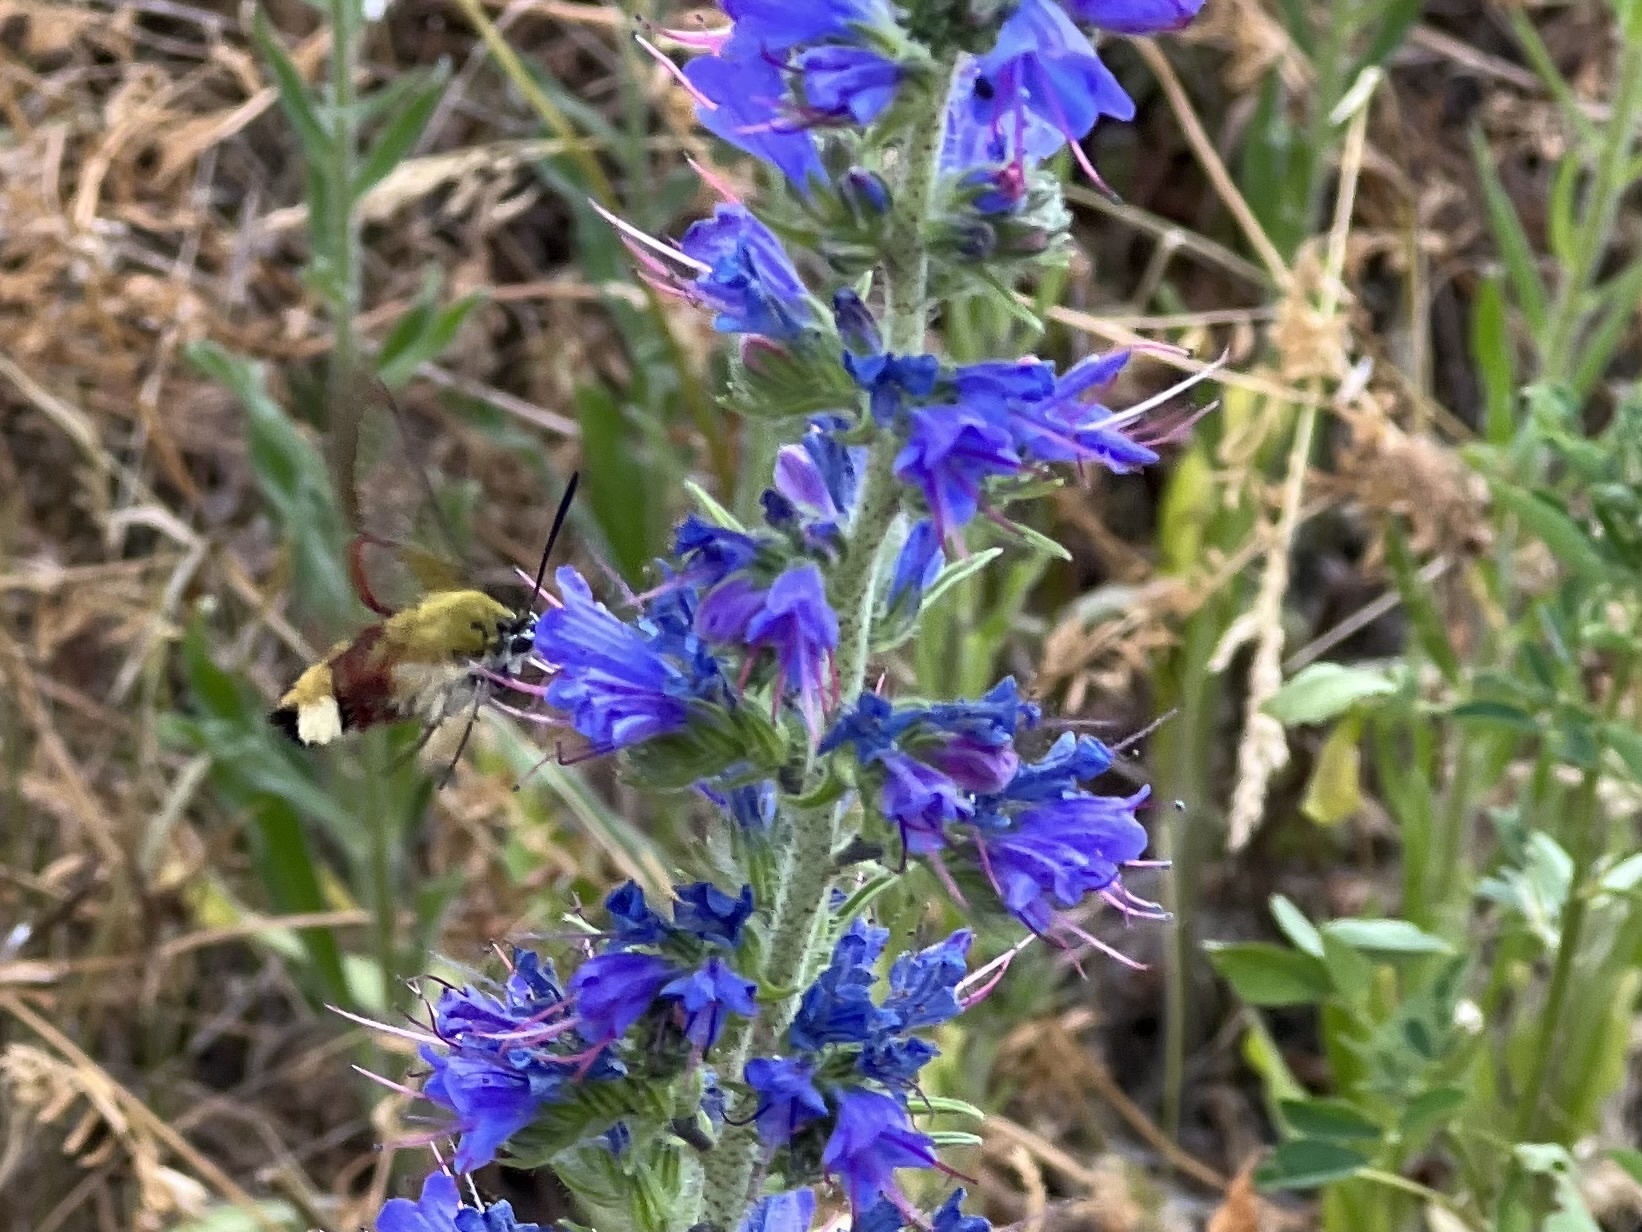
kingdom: Animalia
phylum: Arthropoda
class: Insecta
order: Lepidoptera
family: Sphingidae
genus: Hemaris
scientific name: Hemaris fuciformis
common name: Broad-bordered bee hawk-moth
